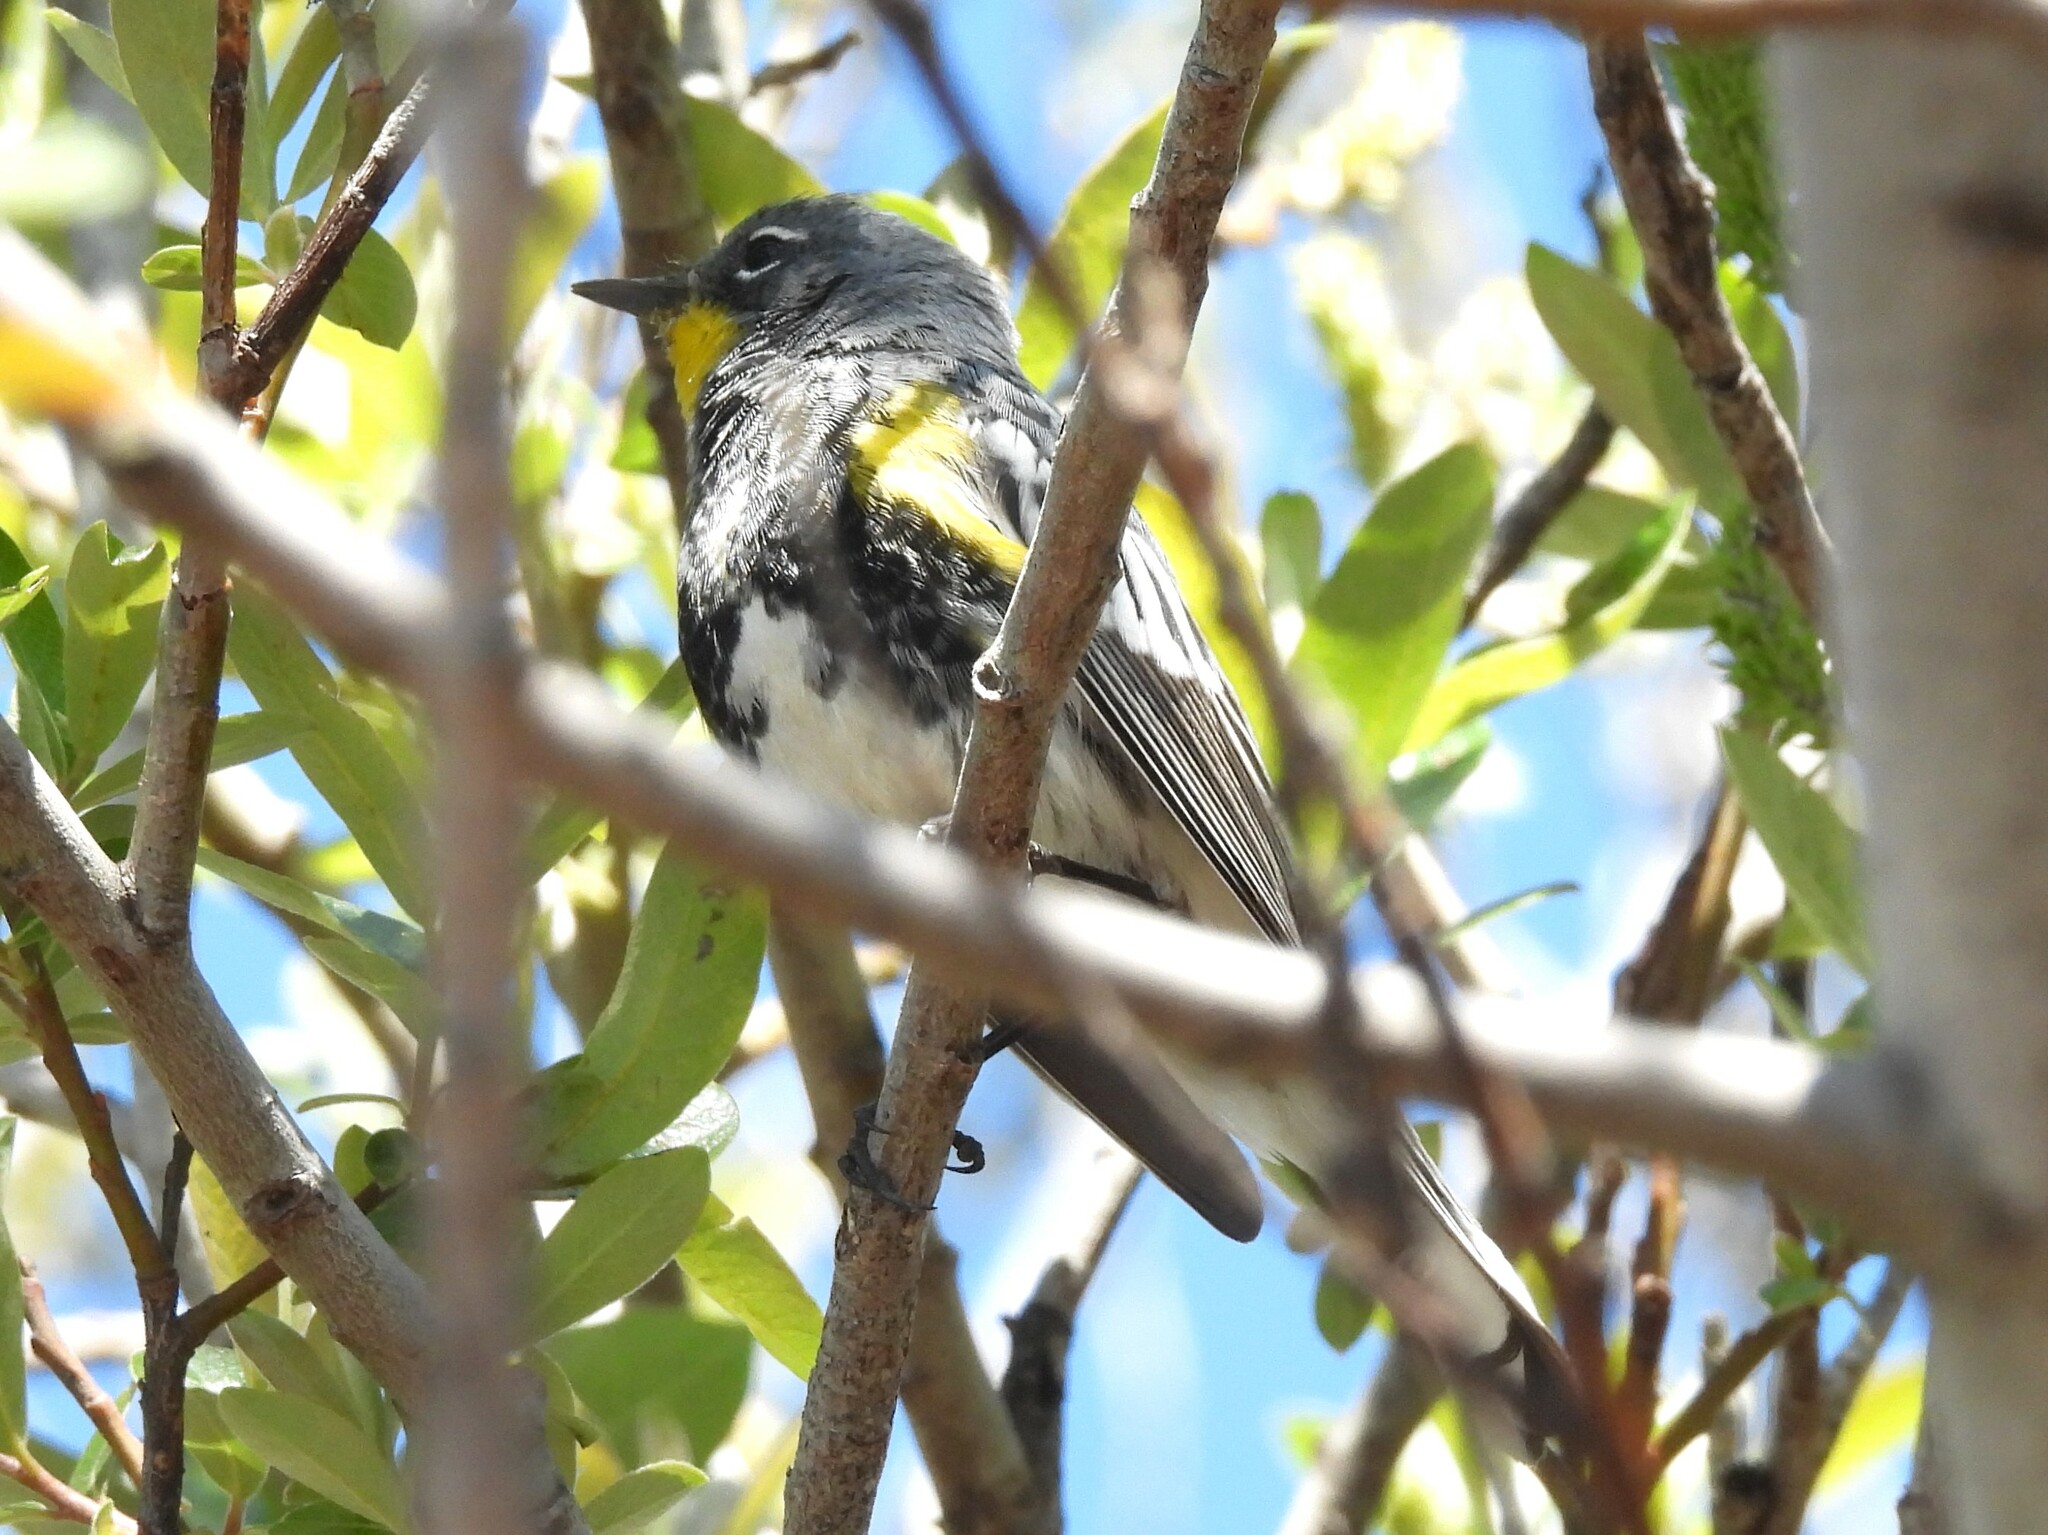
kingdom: Animalia
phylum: Chordata
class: Aves
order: Passeriformes
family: Parulidae
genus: Setophaga
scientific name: Setophaga coronata
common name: Myrtle warbler
